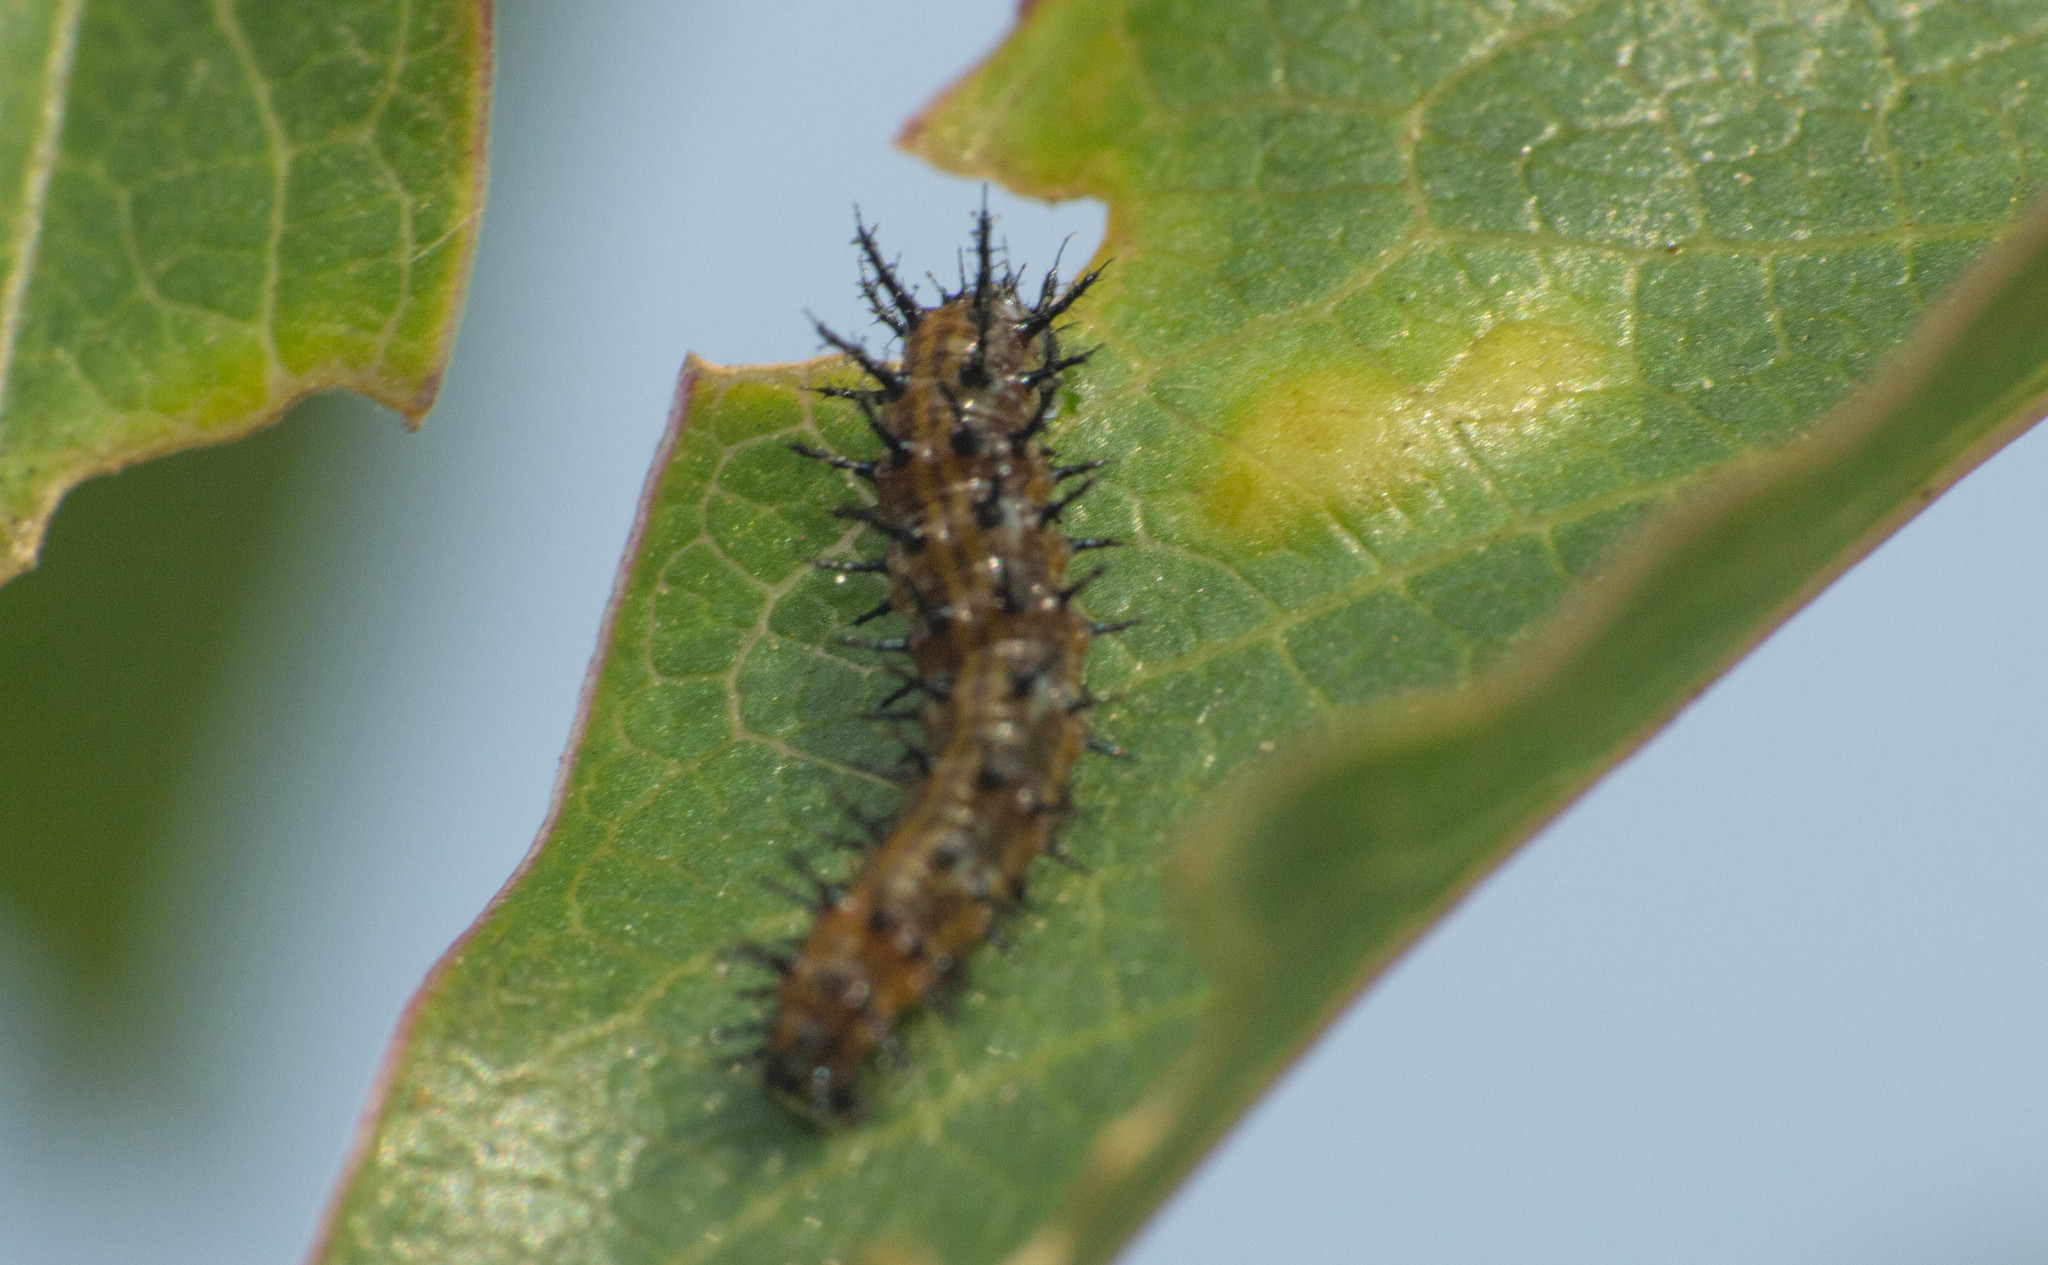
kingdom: Animalia
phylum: Arthropoda
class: Insecta
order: Lepidoptera
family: Nymphalidae
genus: Dione
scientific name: Dione vanillae
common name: Gulf fritillary
